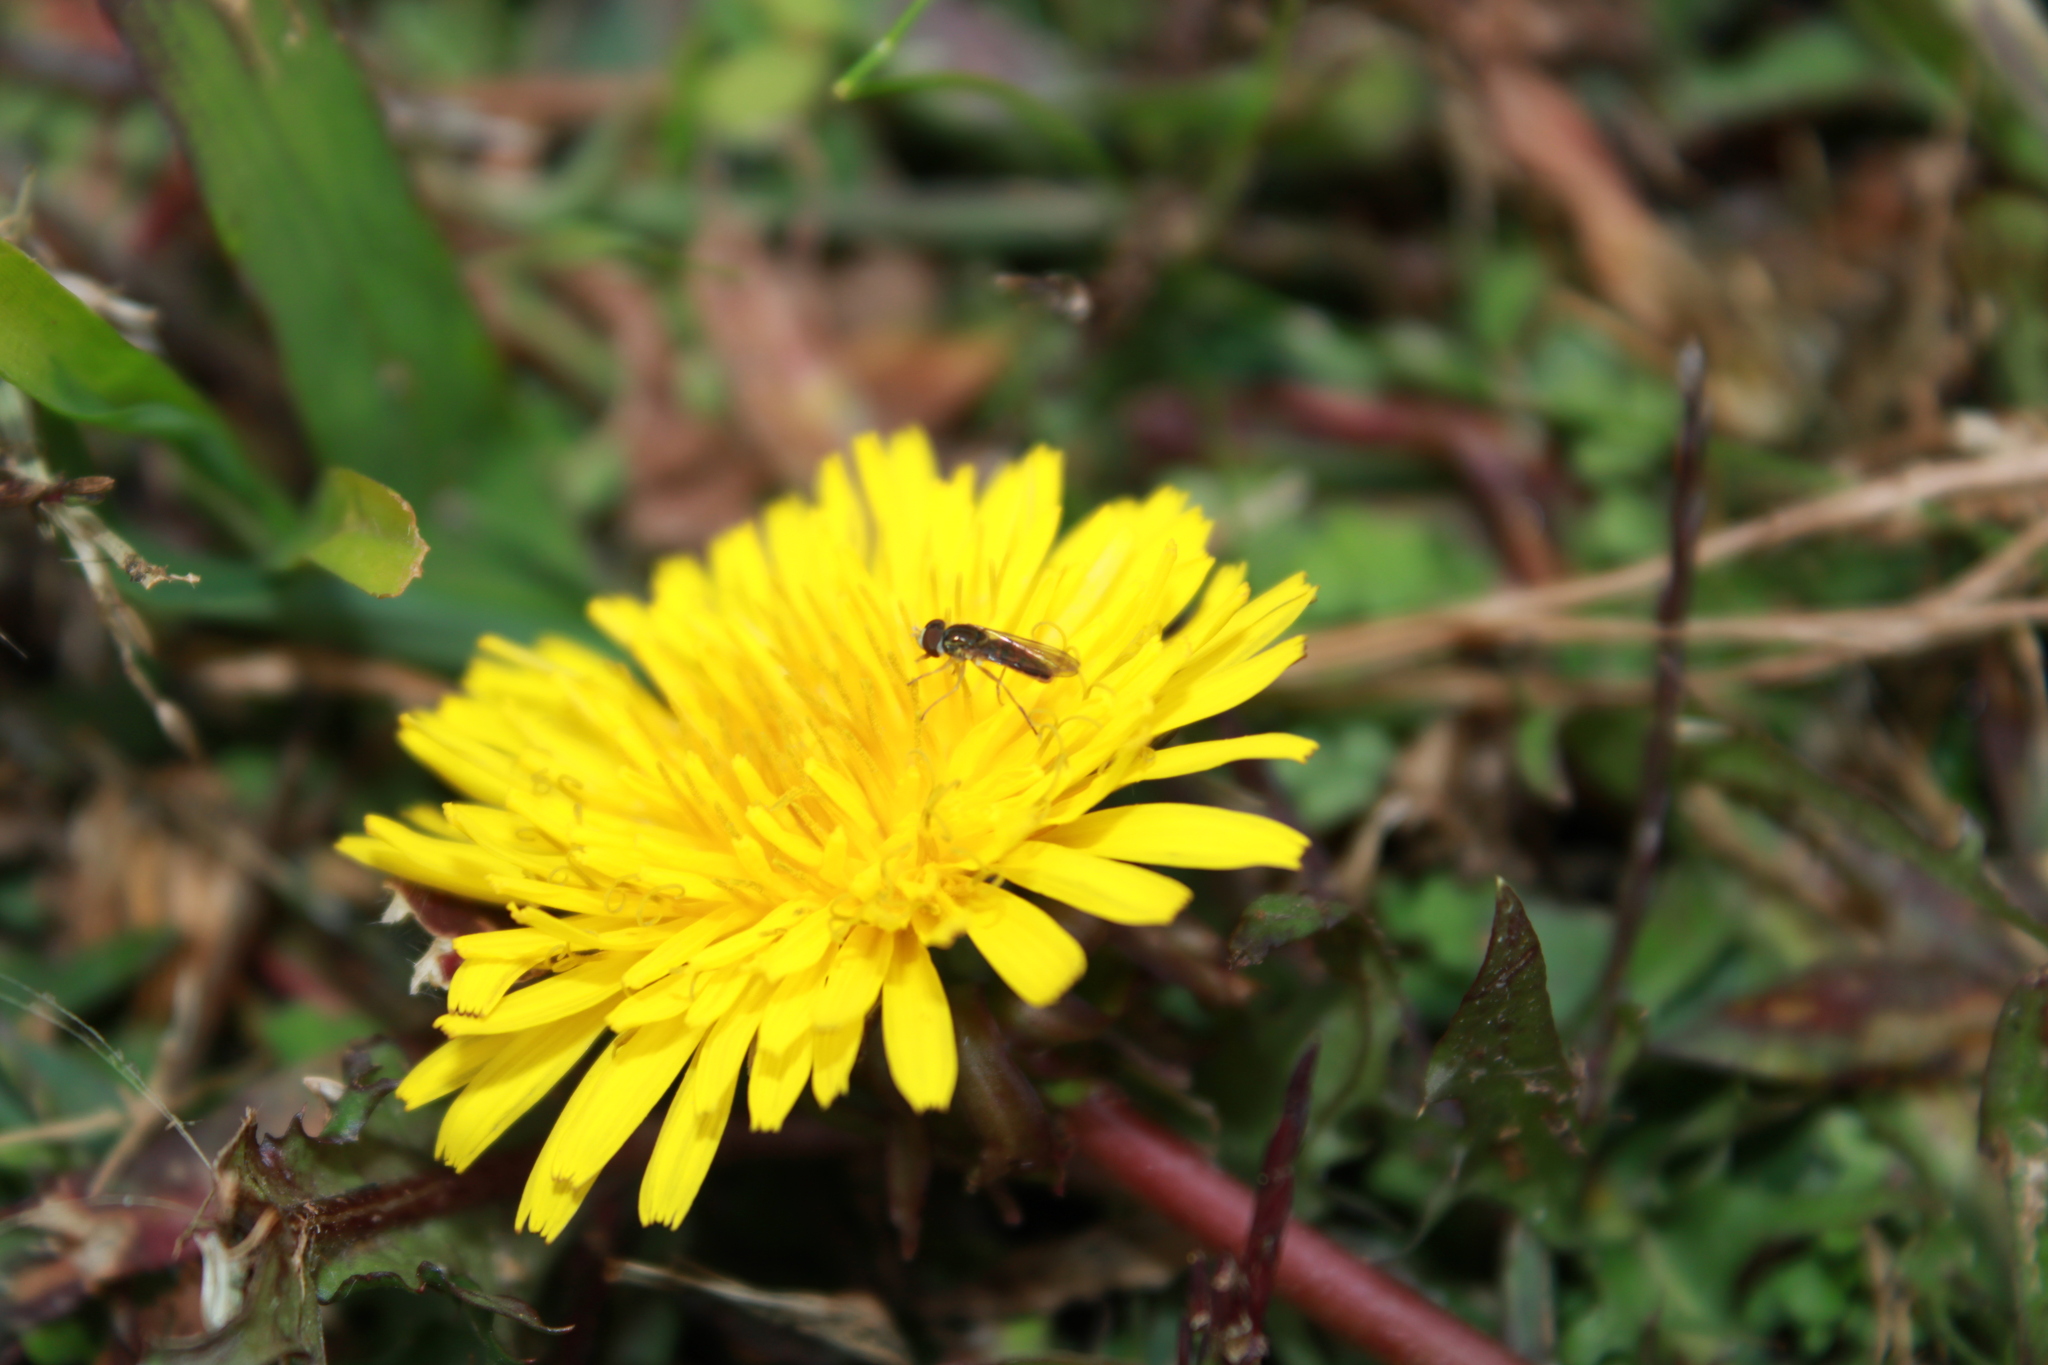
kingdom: Animalia
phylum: Arthropoda
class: Insecta
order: Diptera
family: Syrphidae
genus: Toxomerus
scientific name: Toxomerus marginatus
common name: Syrphid fly
